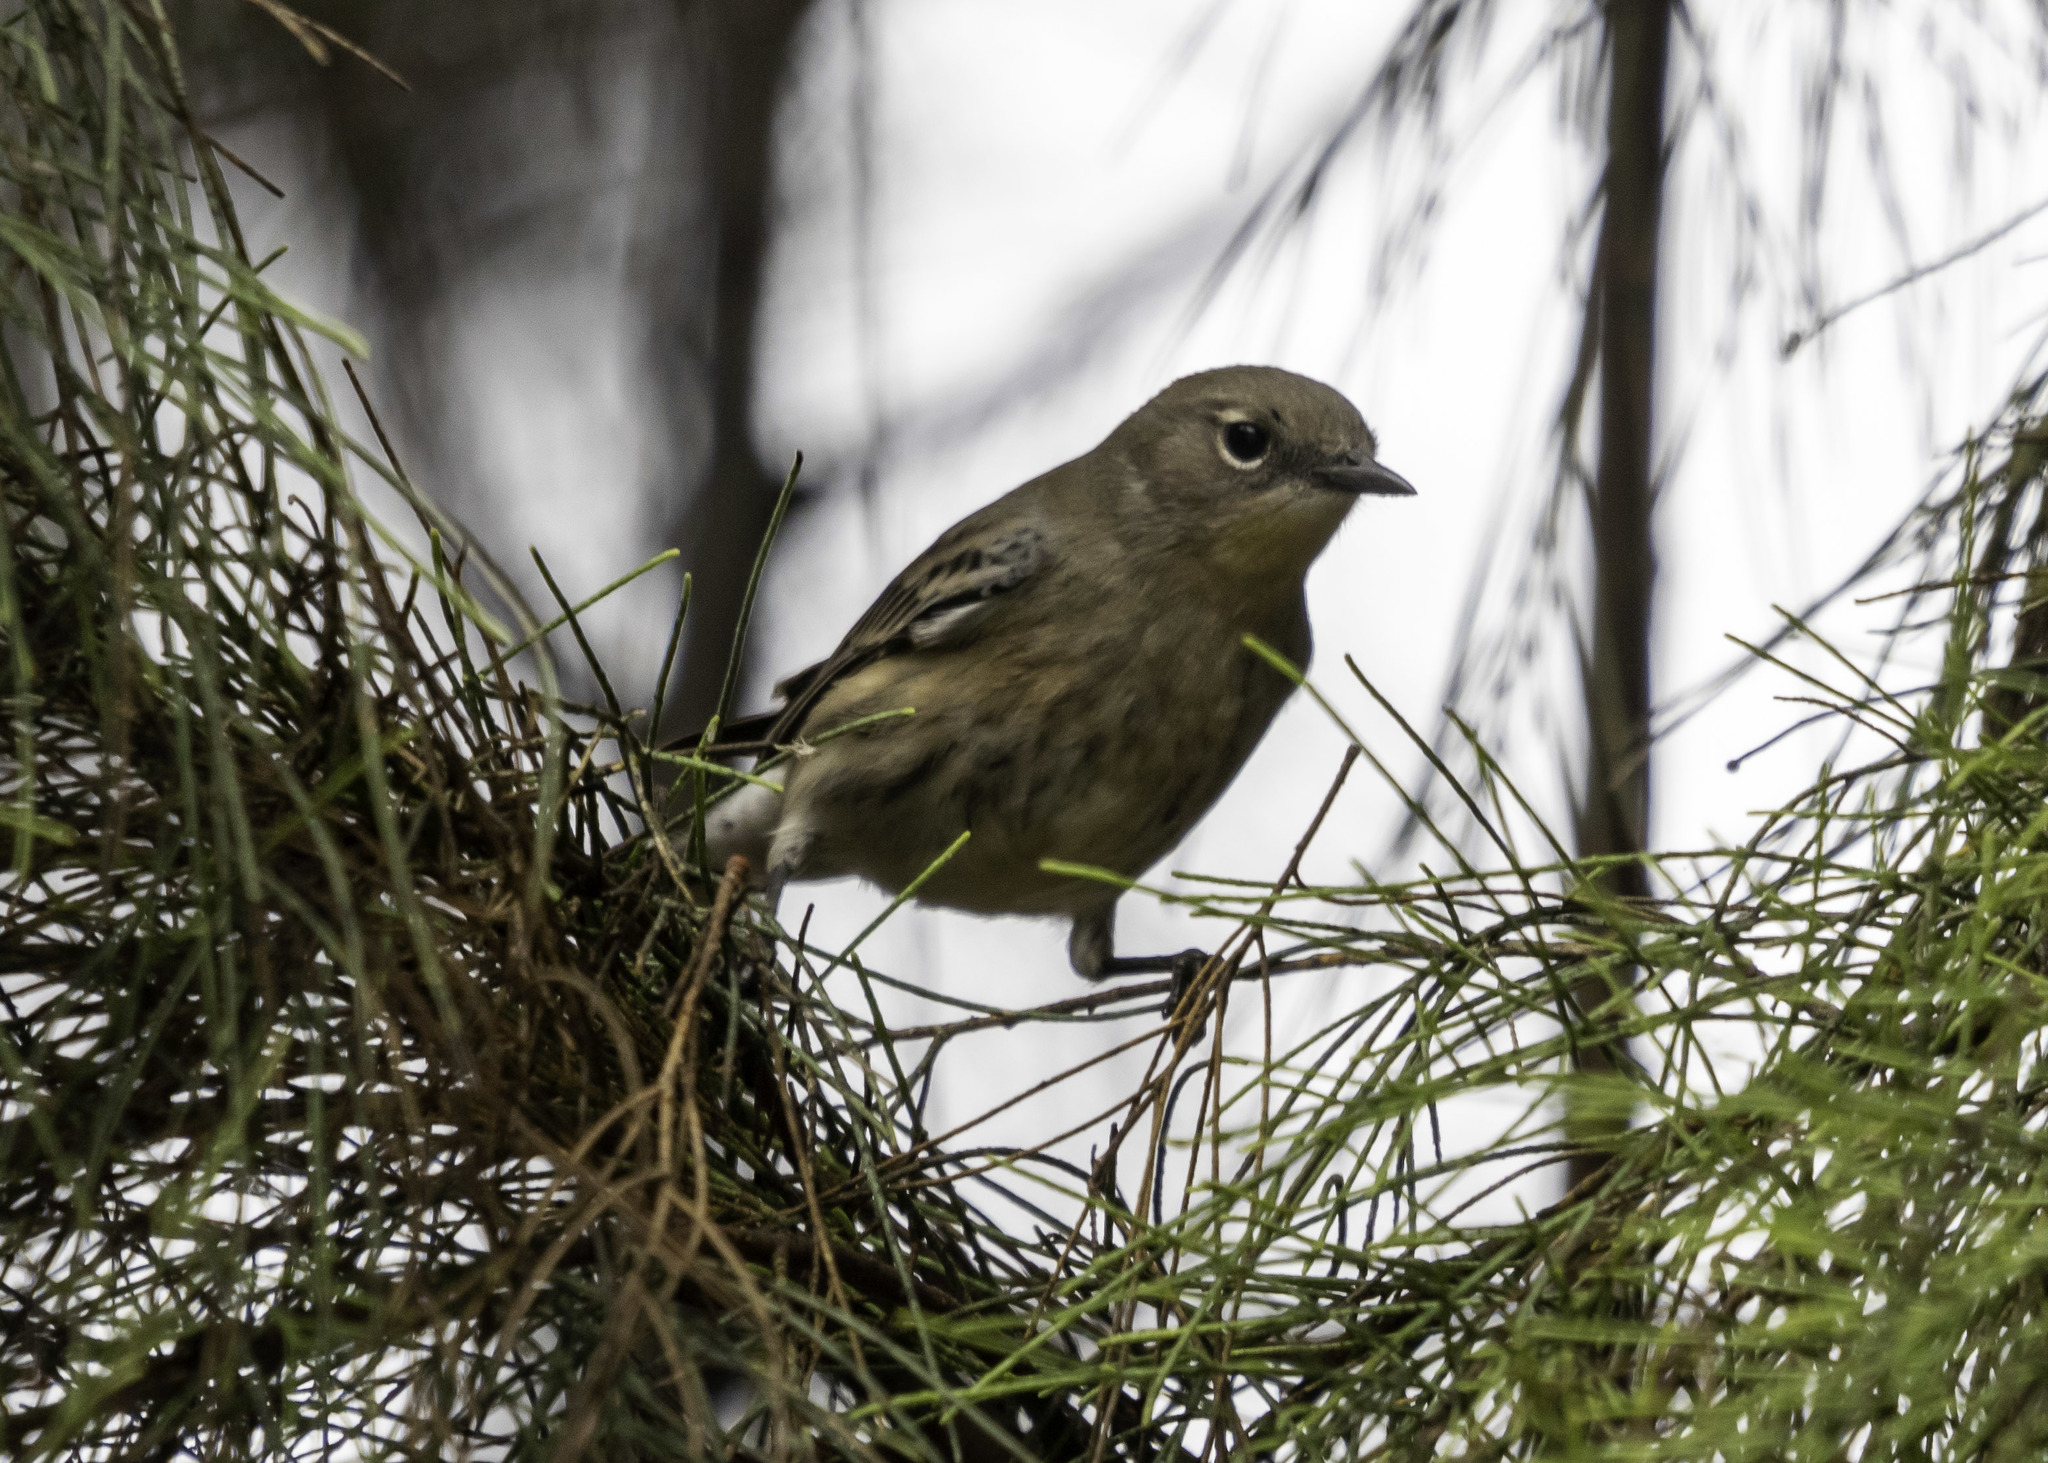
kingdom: Animalia
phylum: Chordata
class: Aves
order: Passeriformes
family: Parulidae
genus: Setophaga
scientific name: Setophaga coronata
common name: Myrtle warbler
